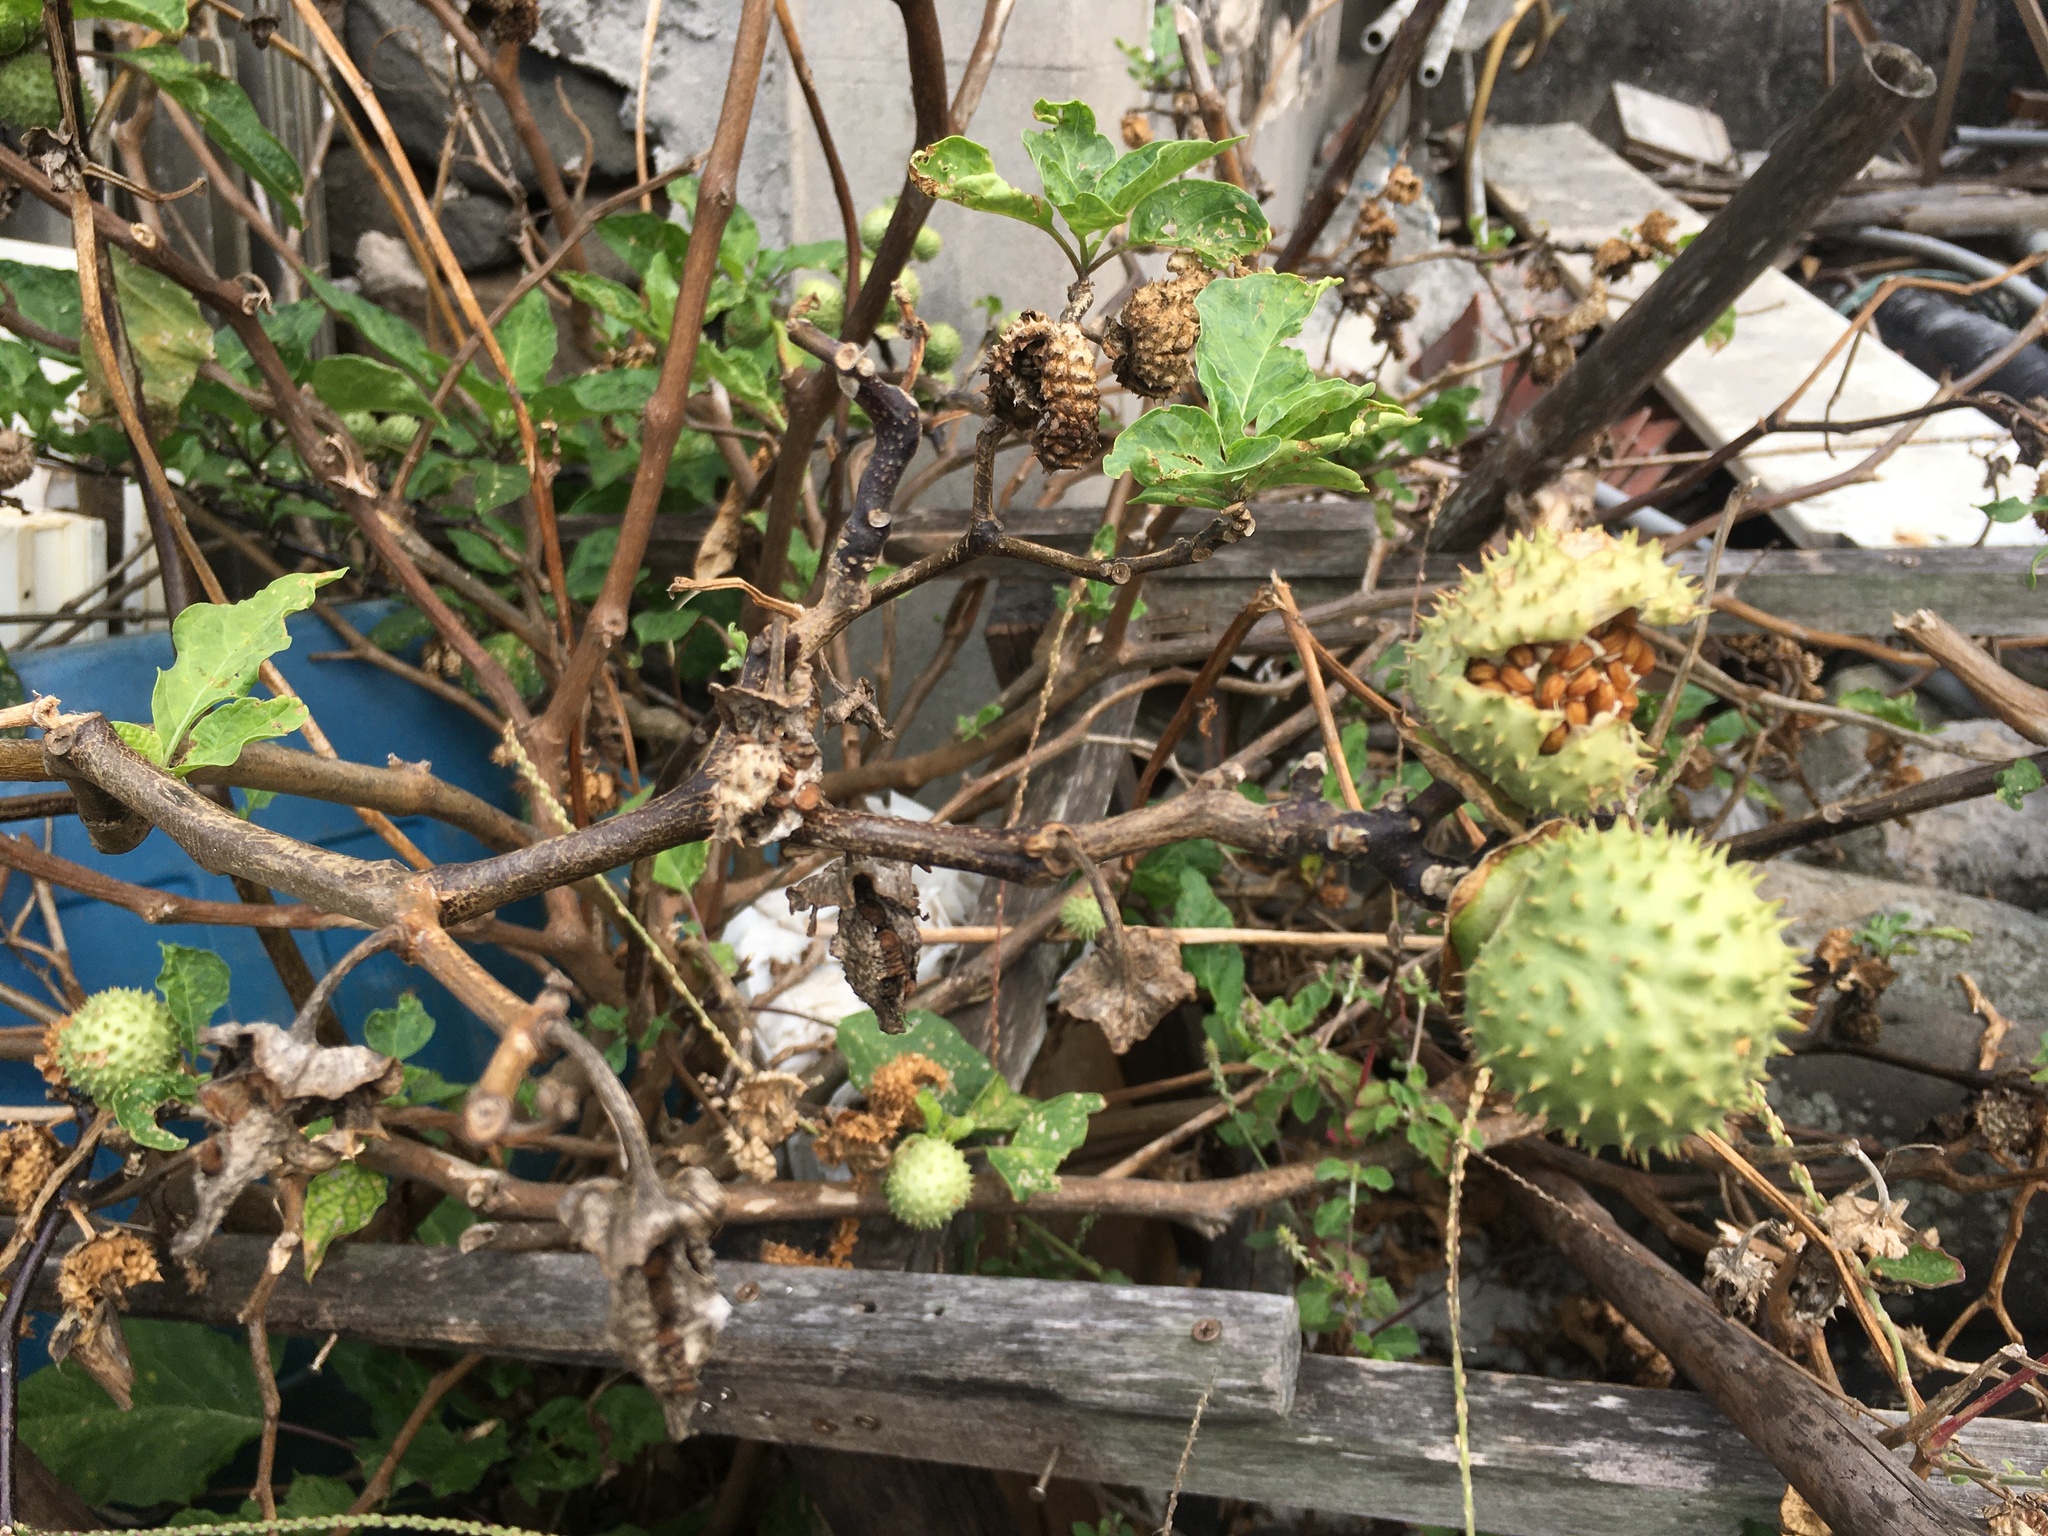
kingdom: Plantae
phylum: Tracheophyta
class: Magnoliopsida
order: Solanales
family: Solanaceae
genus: Datura
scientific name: Datura metel
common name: Jimsonweed
